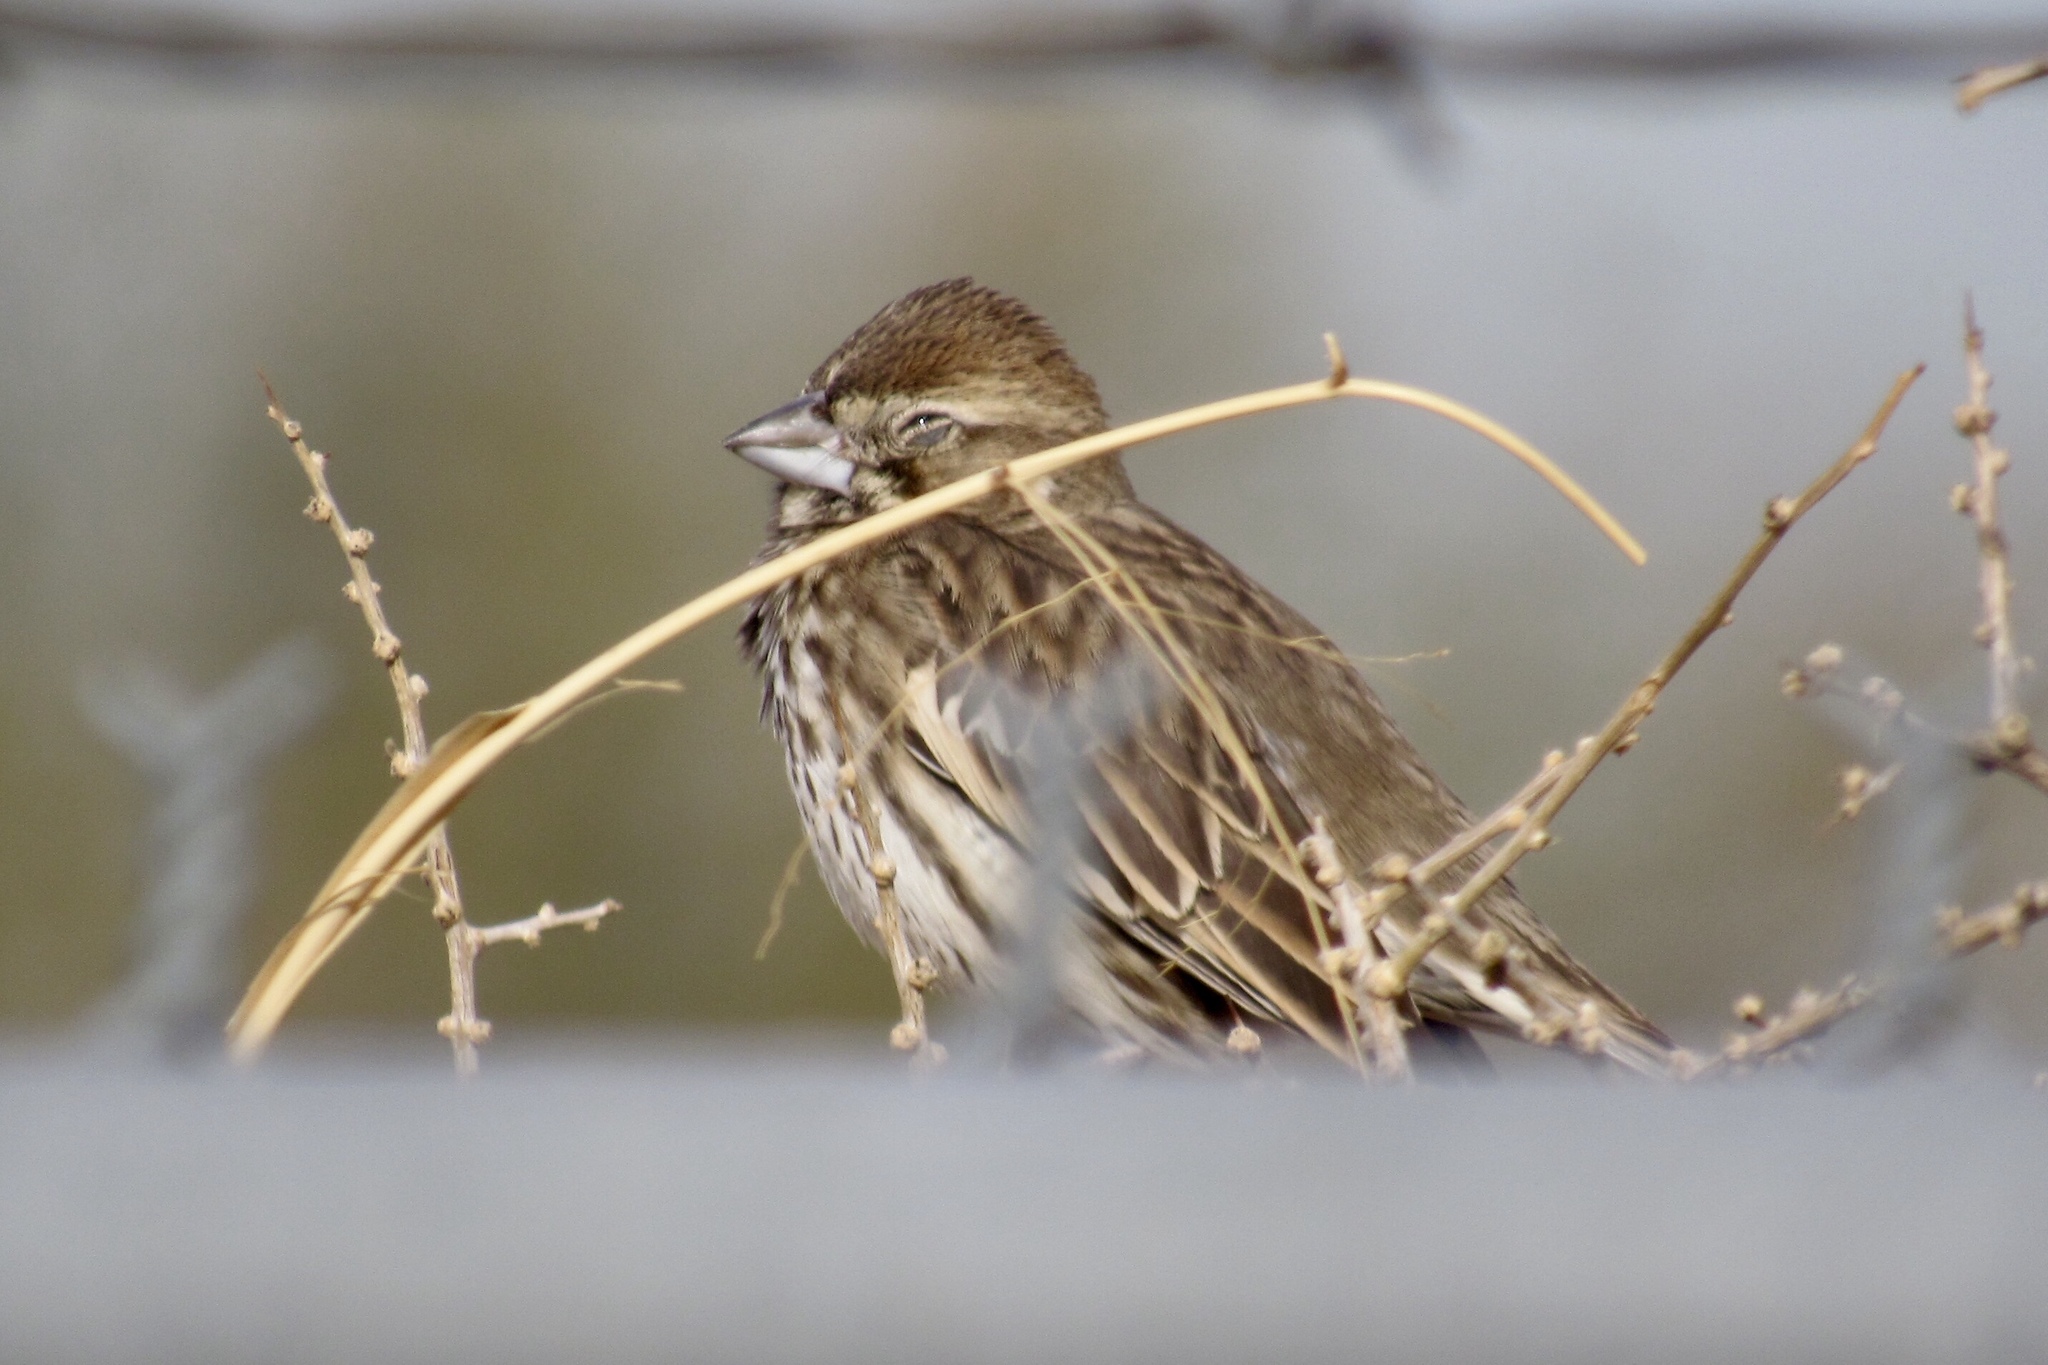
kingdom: Animalia
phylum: Chordata
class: Aves
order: Passeriformes
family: Passerellidae
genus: Calamospiza
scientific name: Calamospiza melanocorys
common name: Lark bunting
